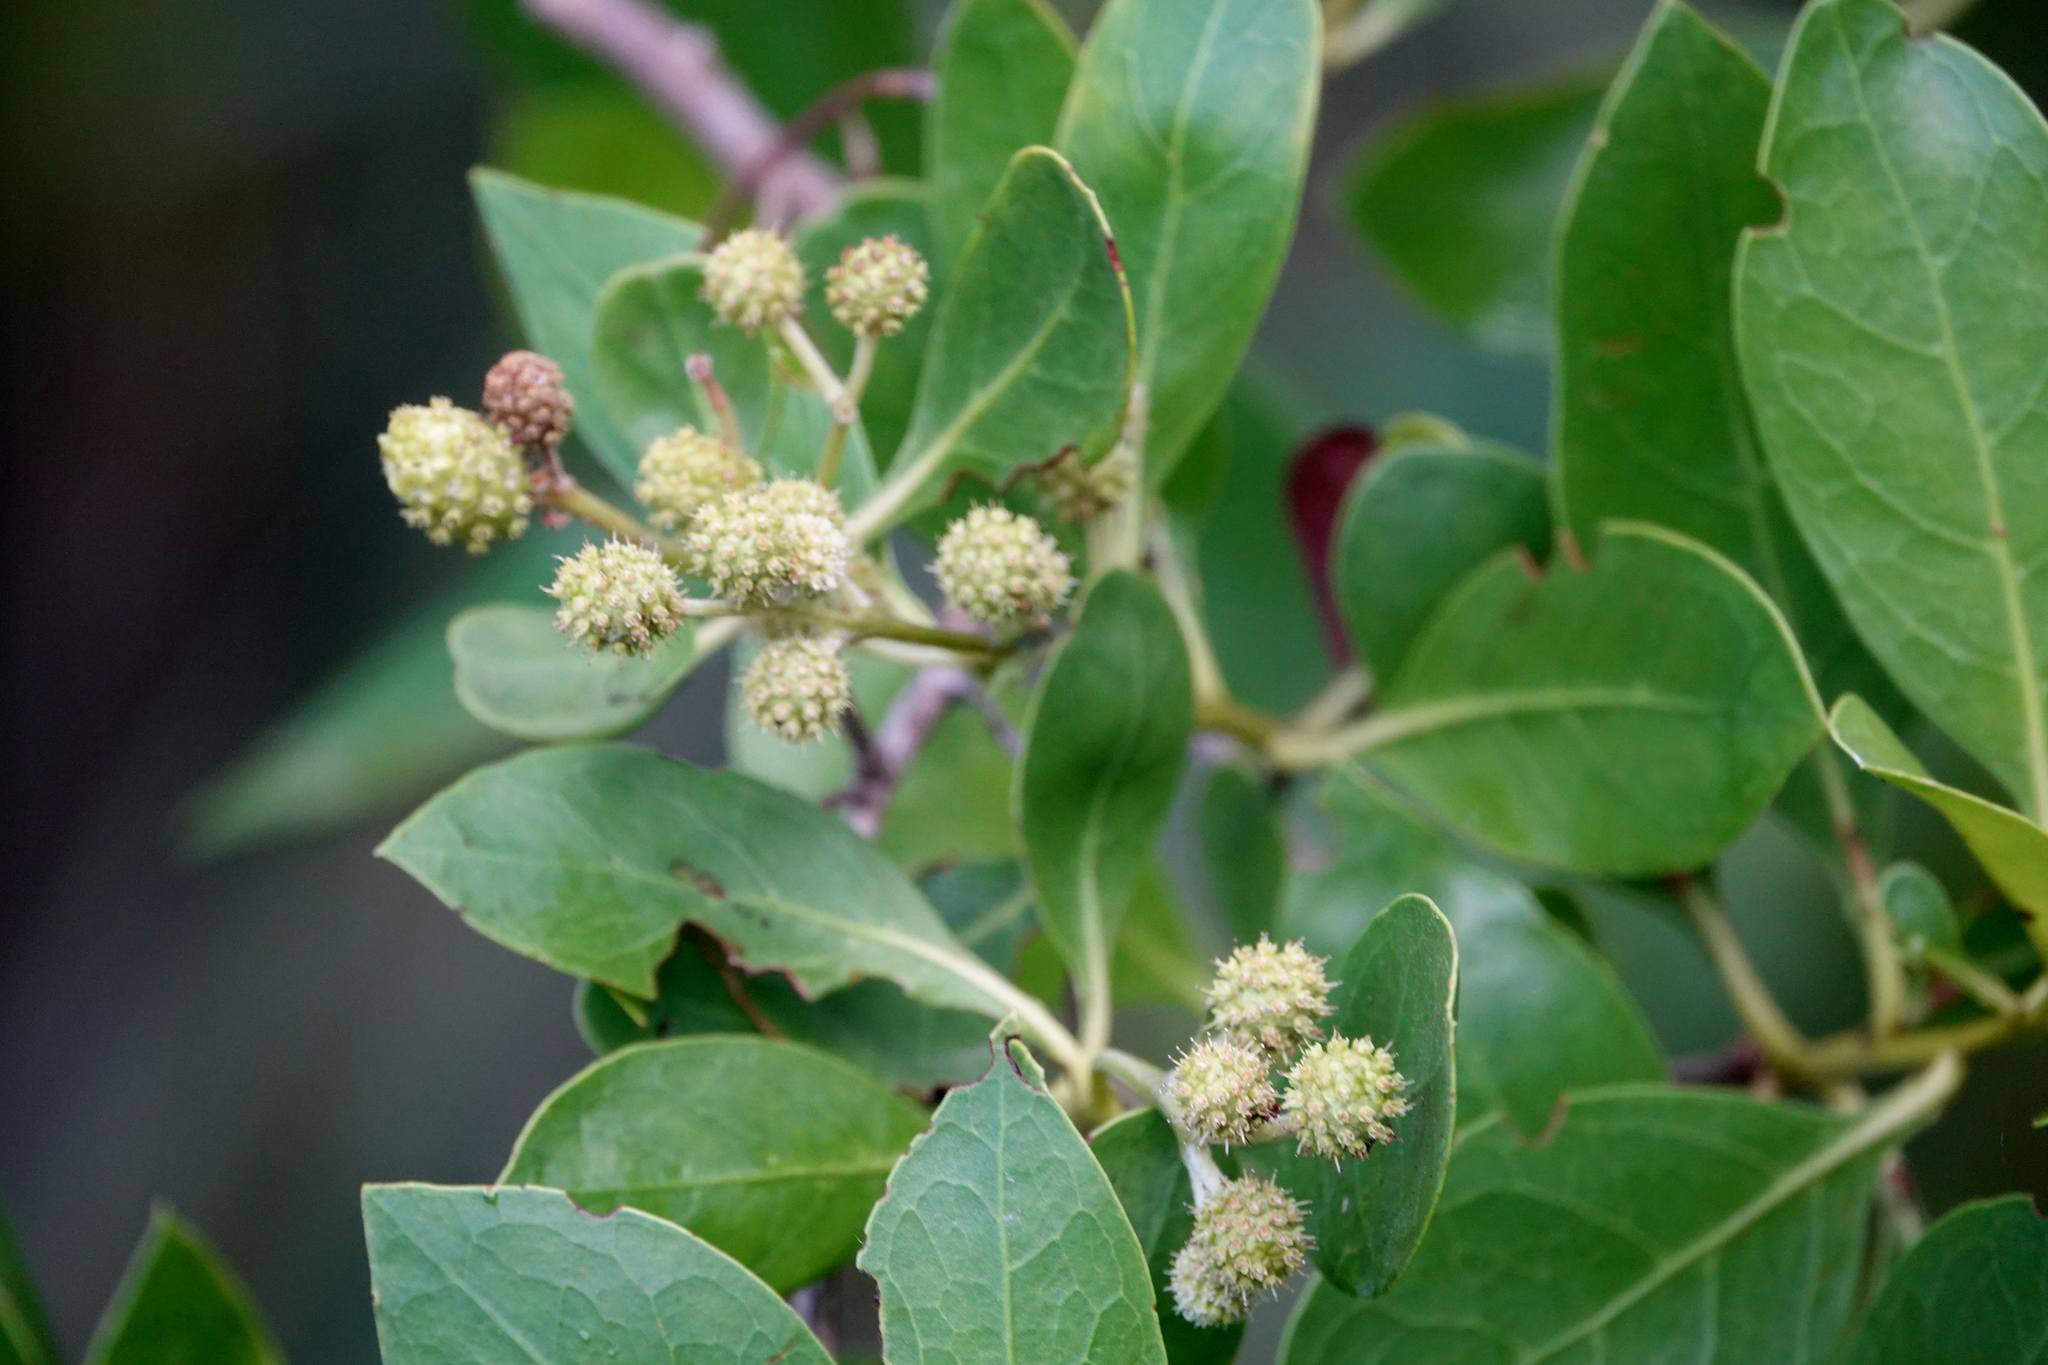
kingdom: Plantae
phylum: Tracheophyta
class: Magnoliopsida
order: Myrtales
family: Combretaceae
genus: Conocarpus
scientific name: Conocarpus erectus
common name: Button mangrove
